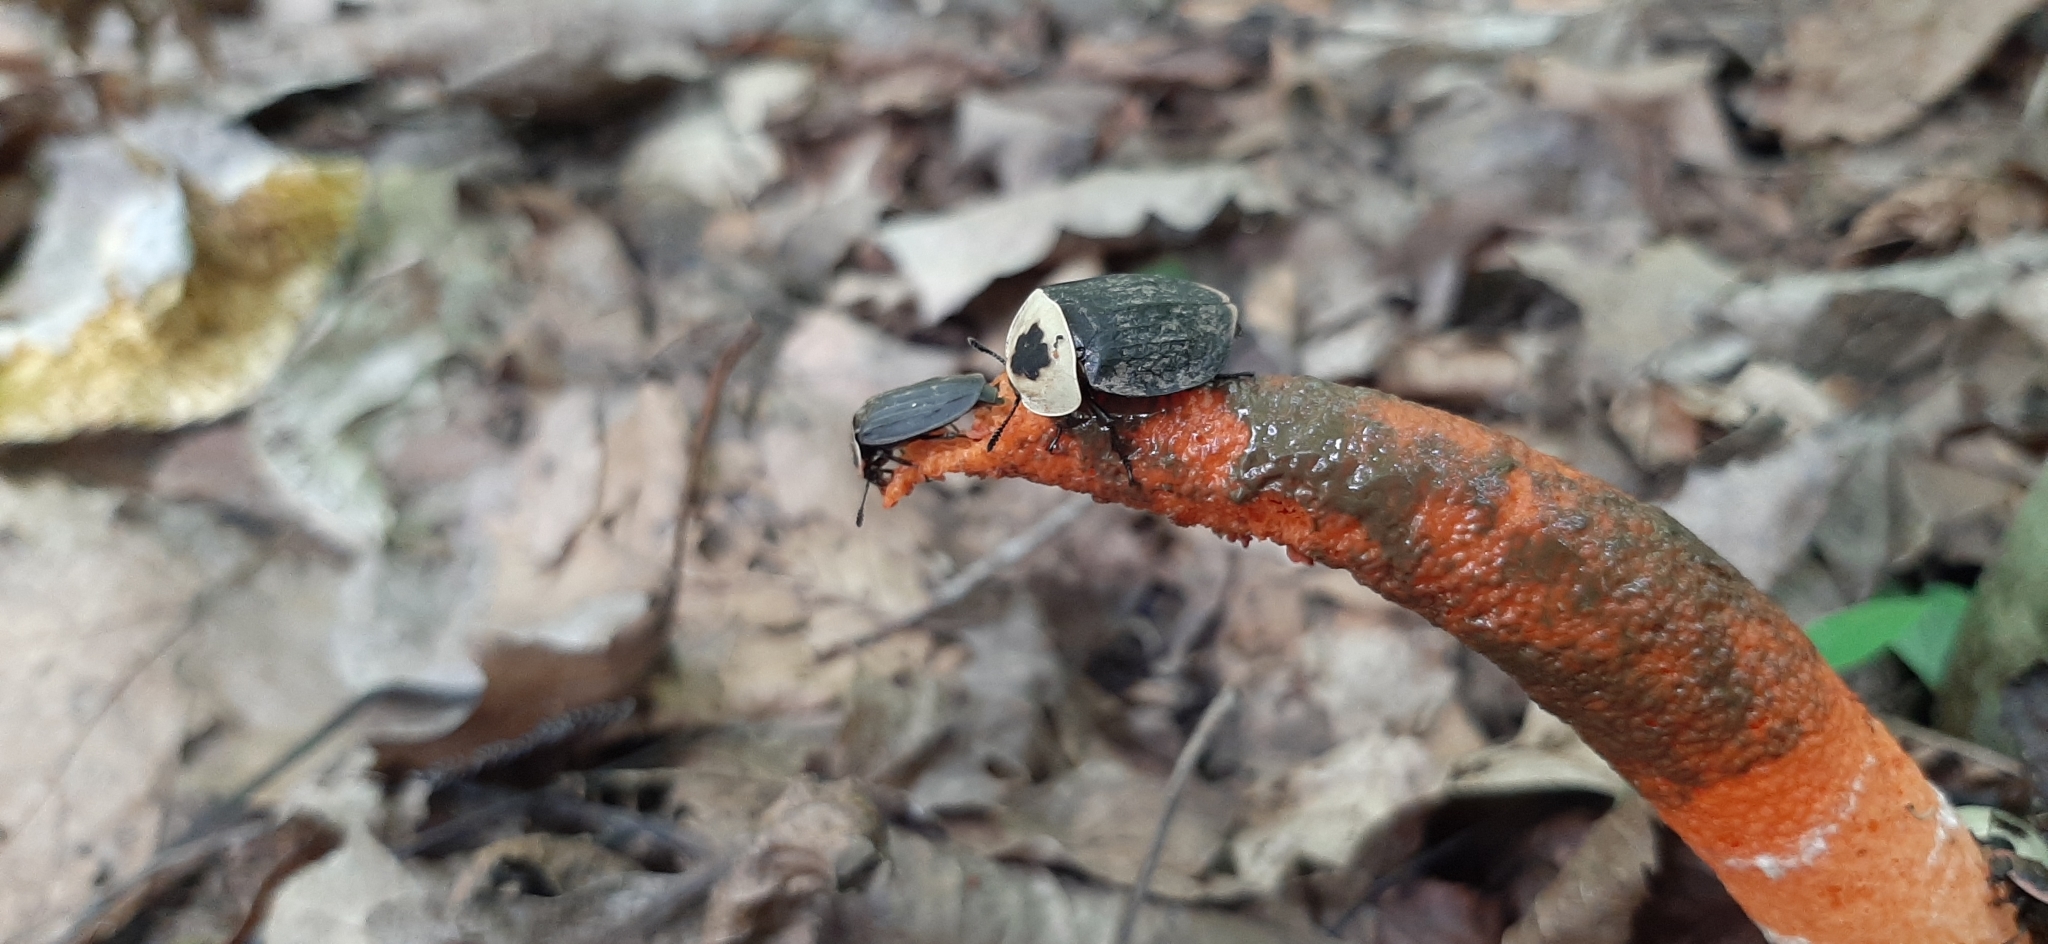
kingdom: Animalia
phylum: Arthropoda
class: Insecta
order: Coleoptera
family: Staphylinidae
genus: Oiceoptoma
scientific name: Oiceoptoma noveboracense
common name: Margined carrion beetle
